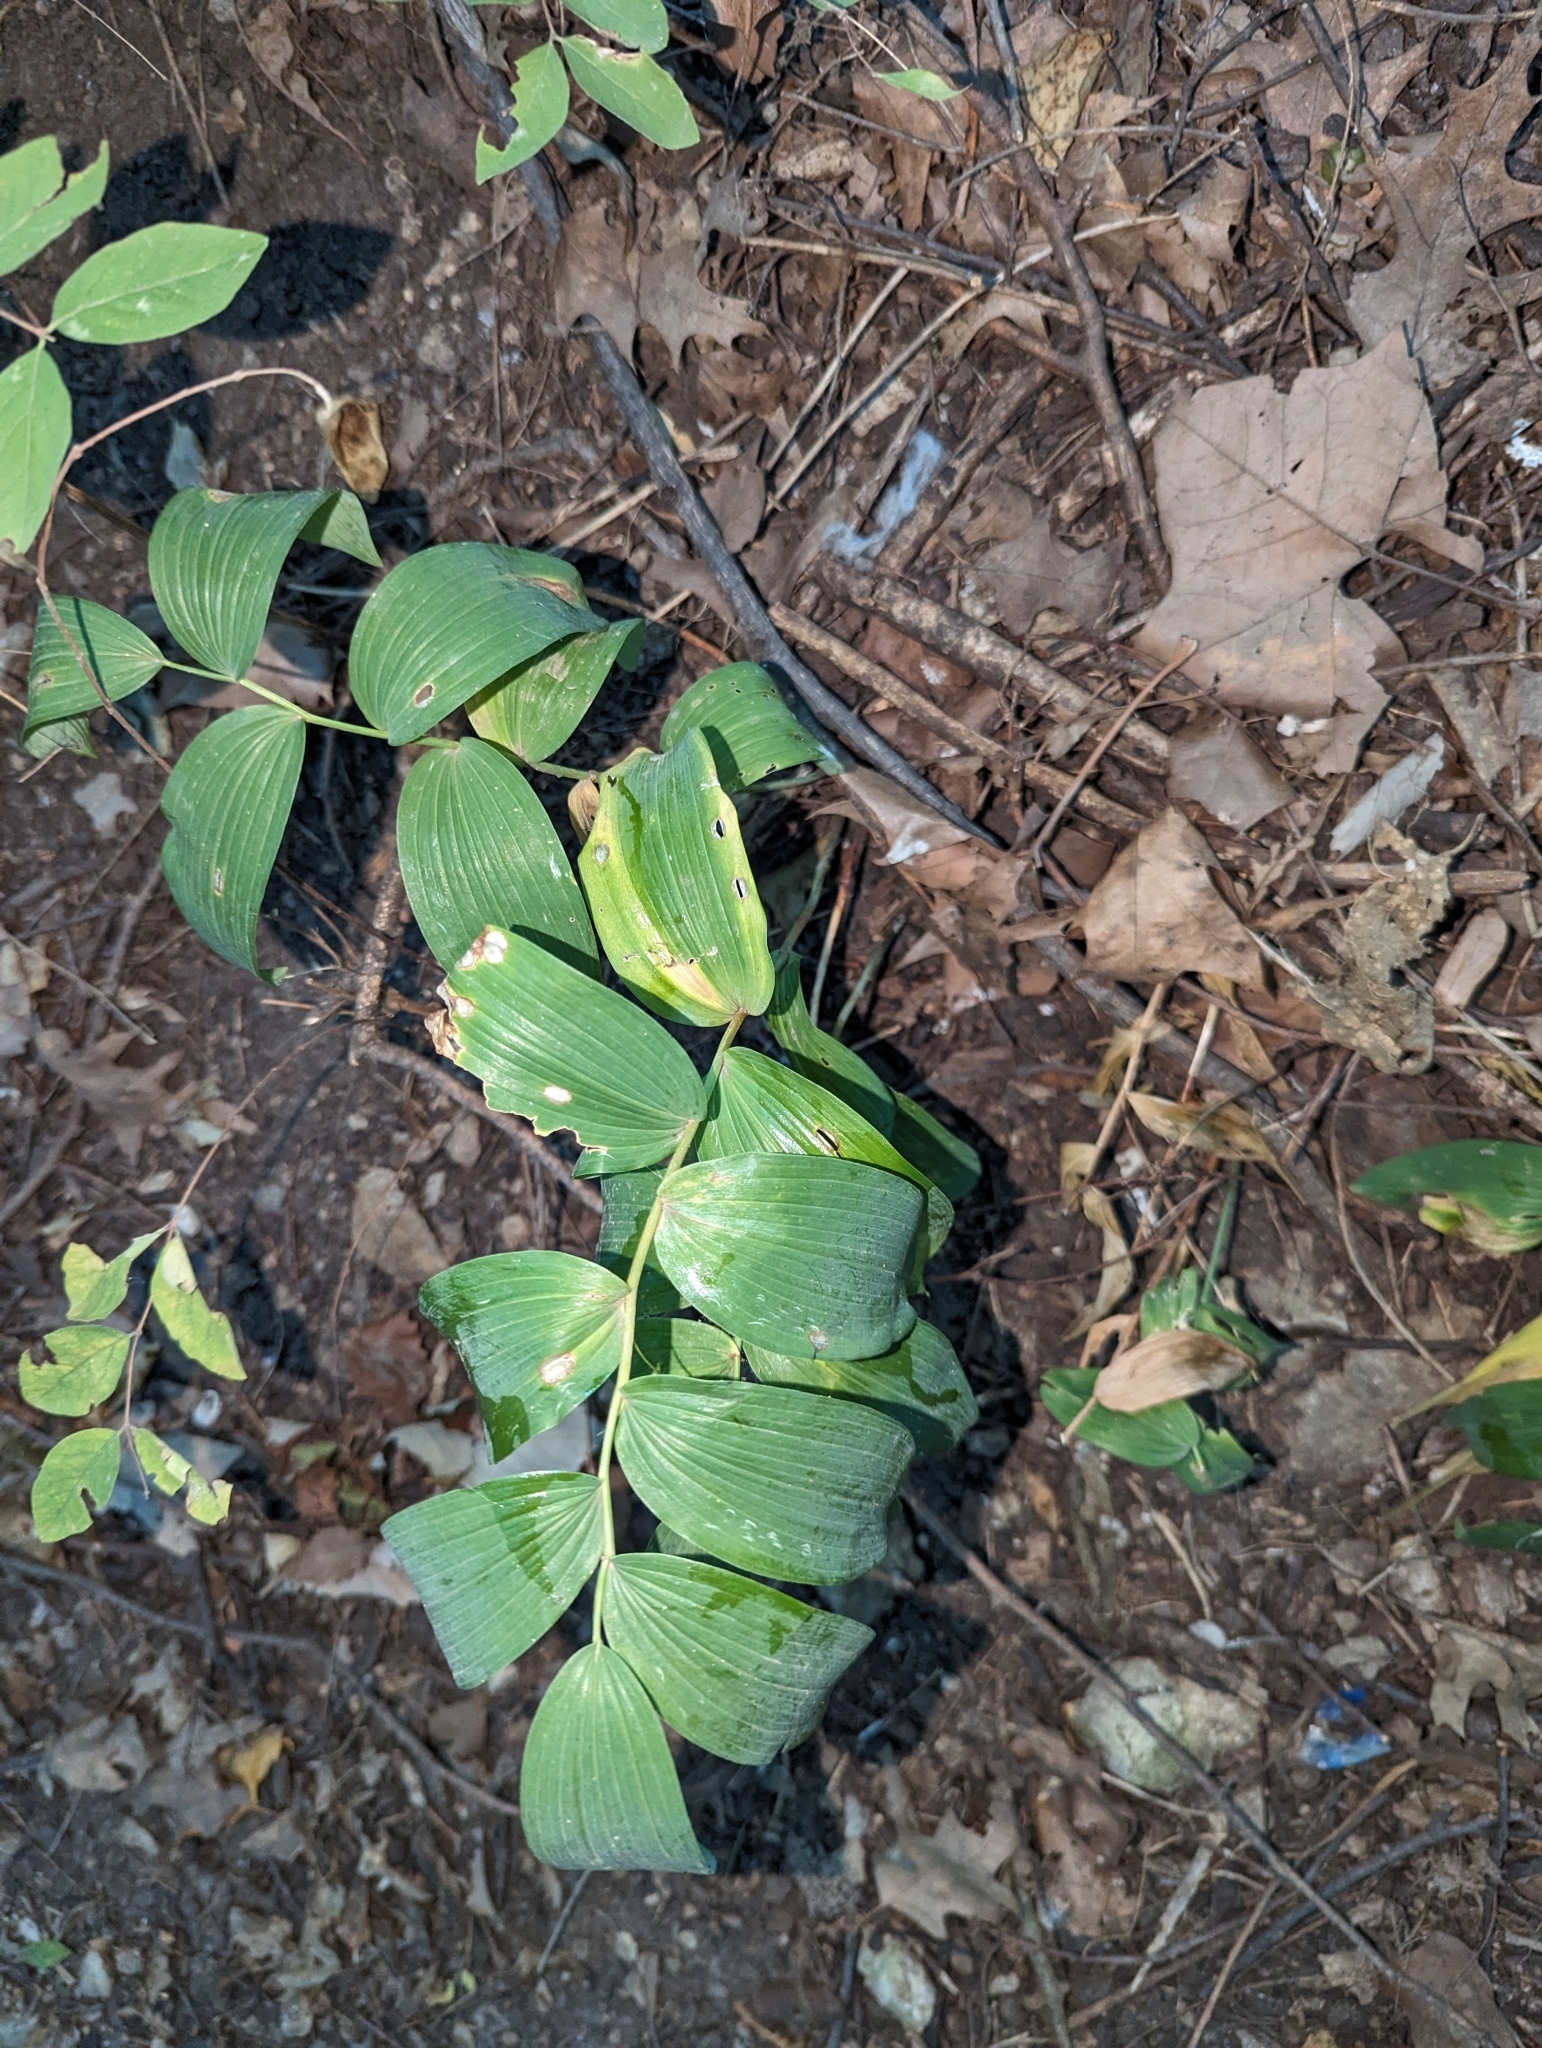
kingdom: Plantae
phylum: Tracheophyta
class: Liliopsida
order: Asparagales
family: Asparagaceae
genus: Polygonatum
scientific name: Polygonatum biflorum
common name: American solomon's-seal
